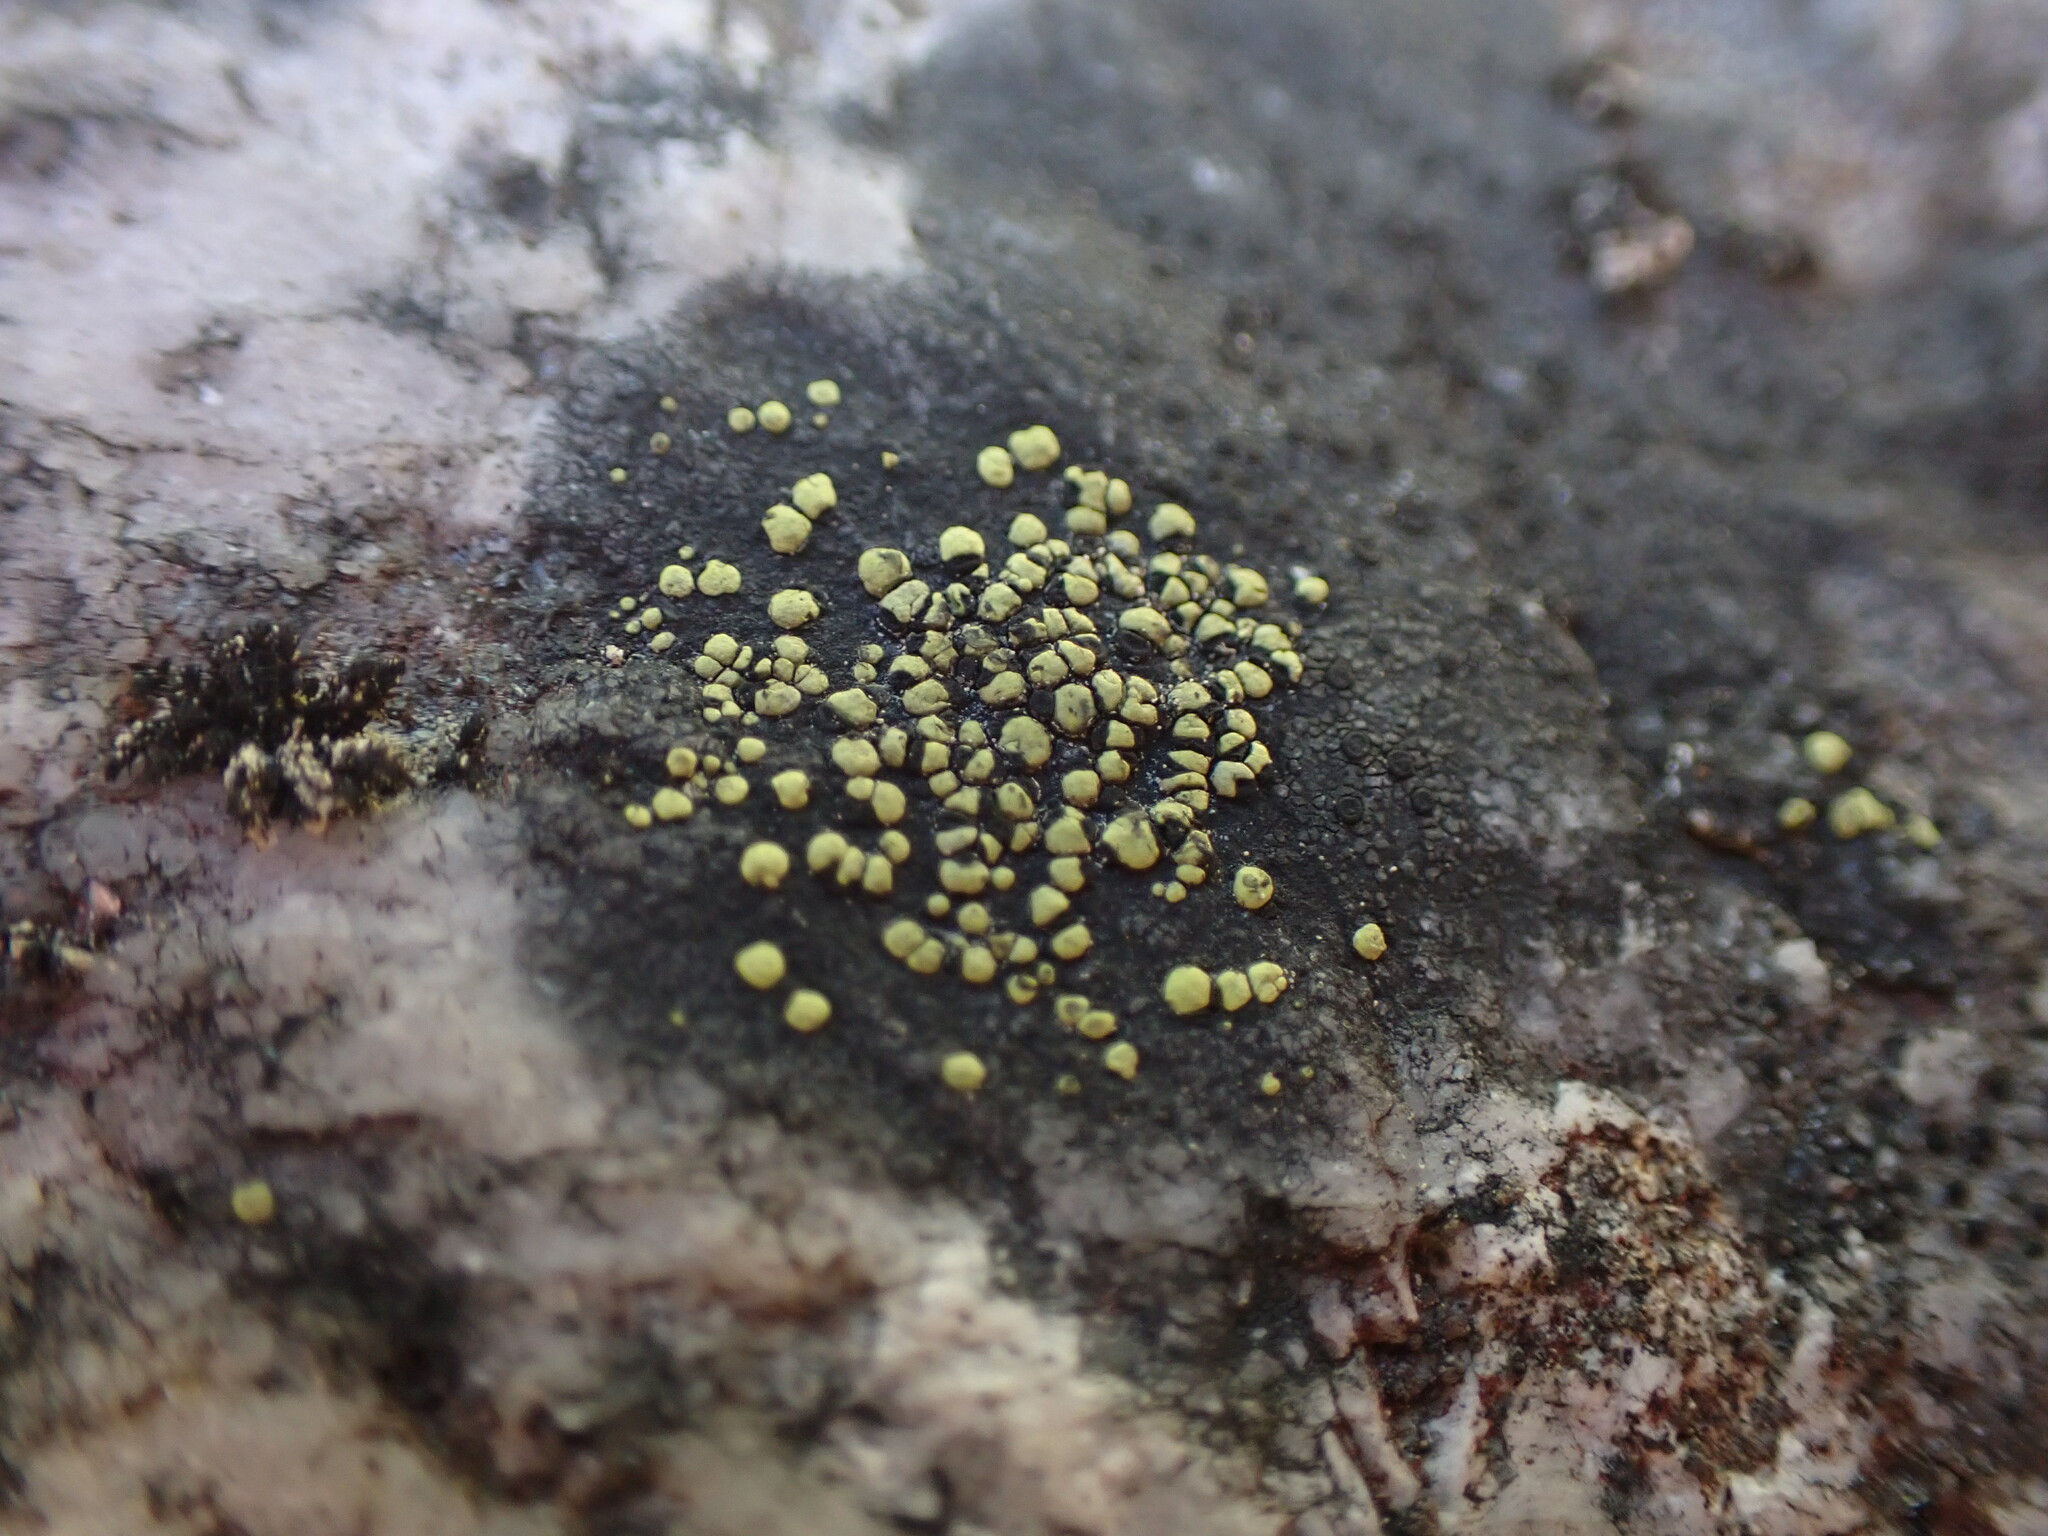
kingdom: Fungi
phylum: Ascomycota
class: Lecanoromycetes
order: Rhizocarpales
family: Rhizocarpaceae
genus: Rhizocarpon
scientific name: Rhizocarpon geographicum
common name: Yellow map lichen
